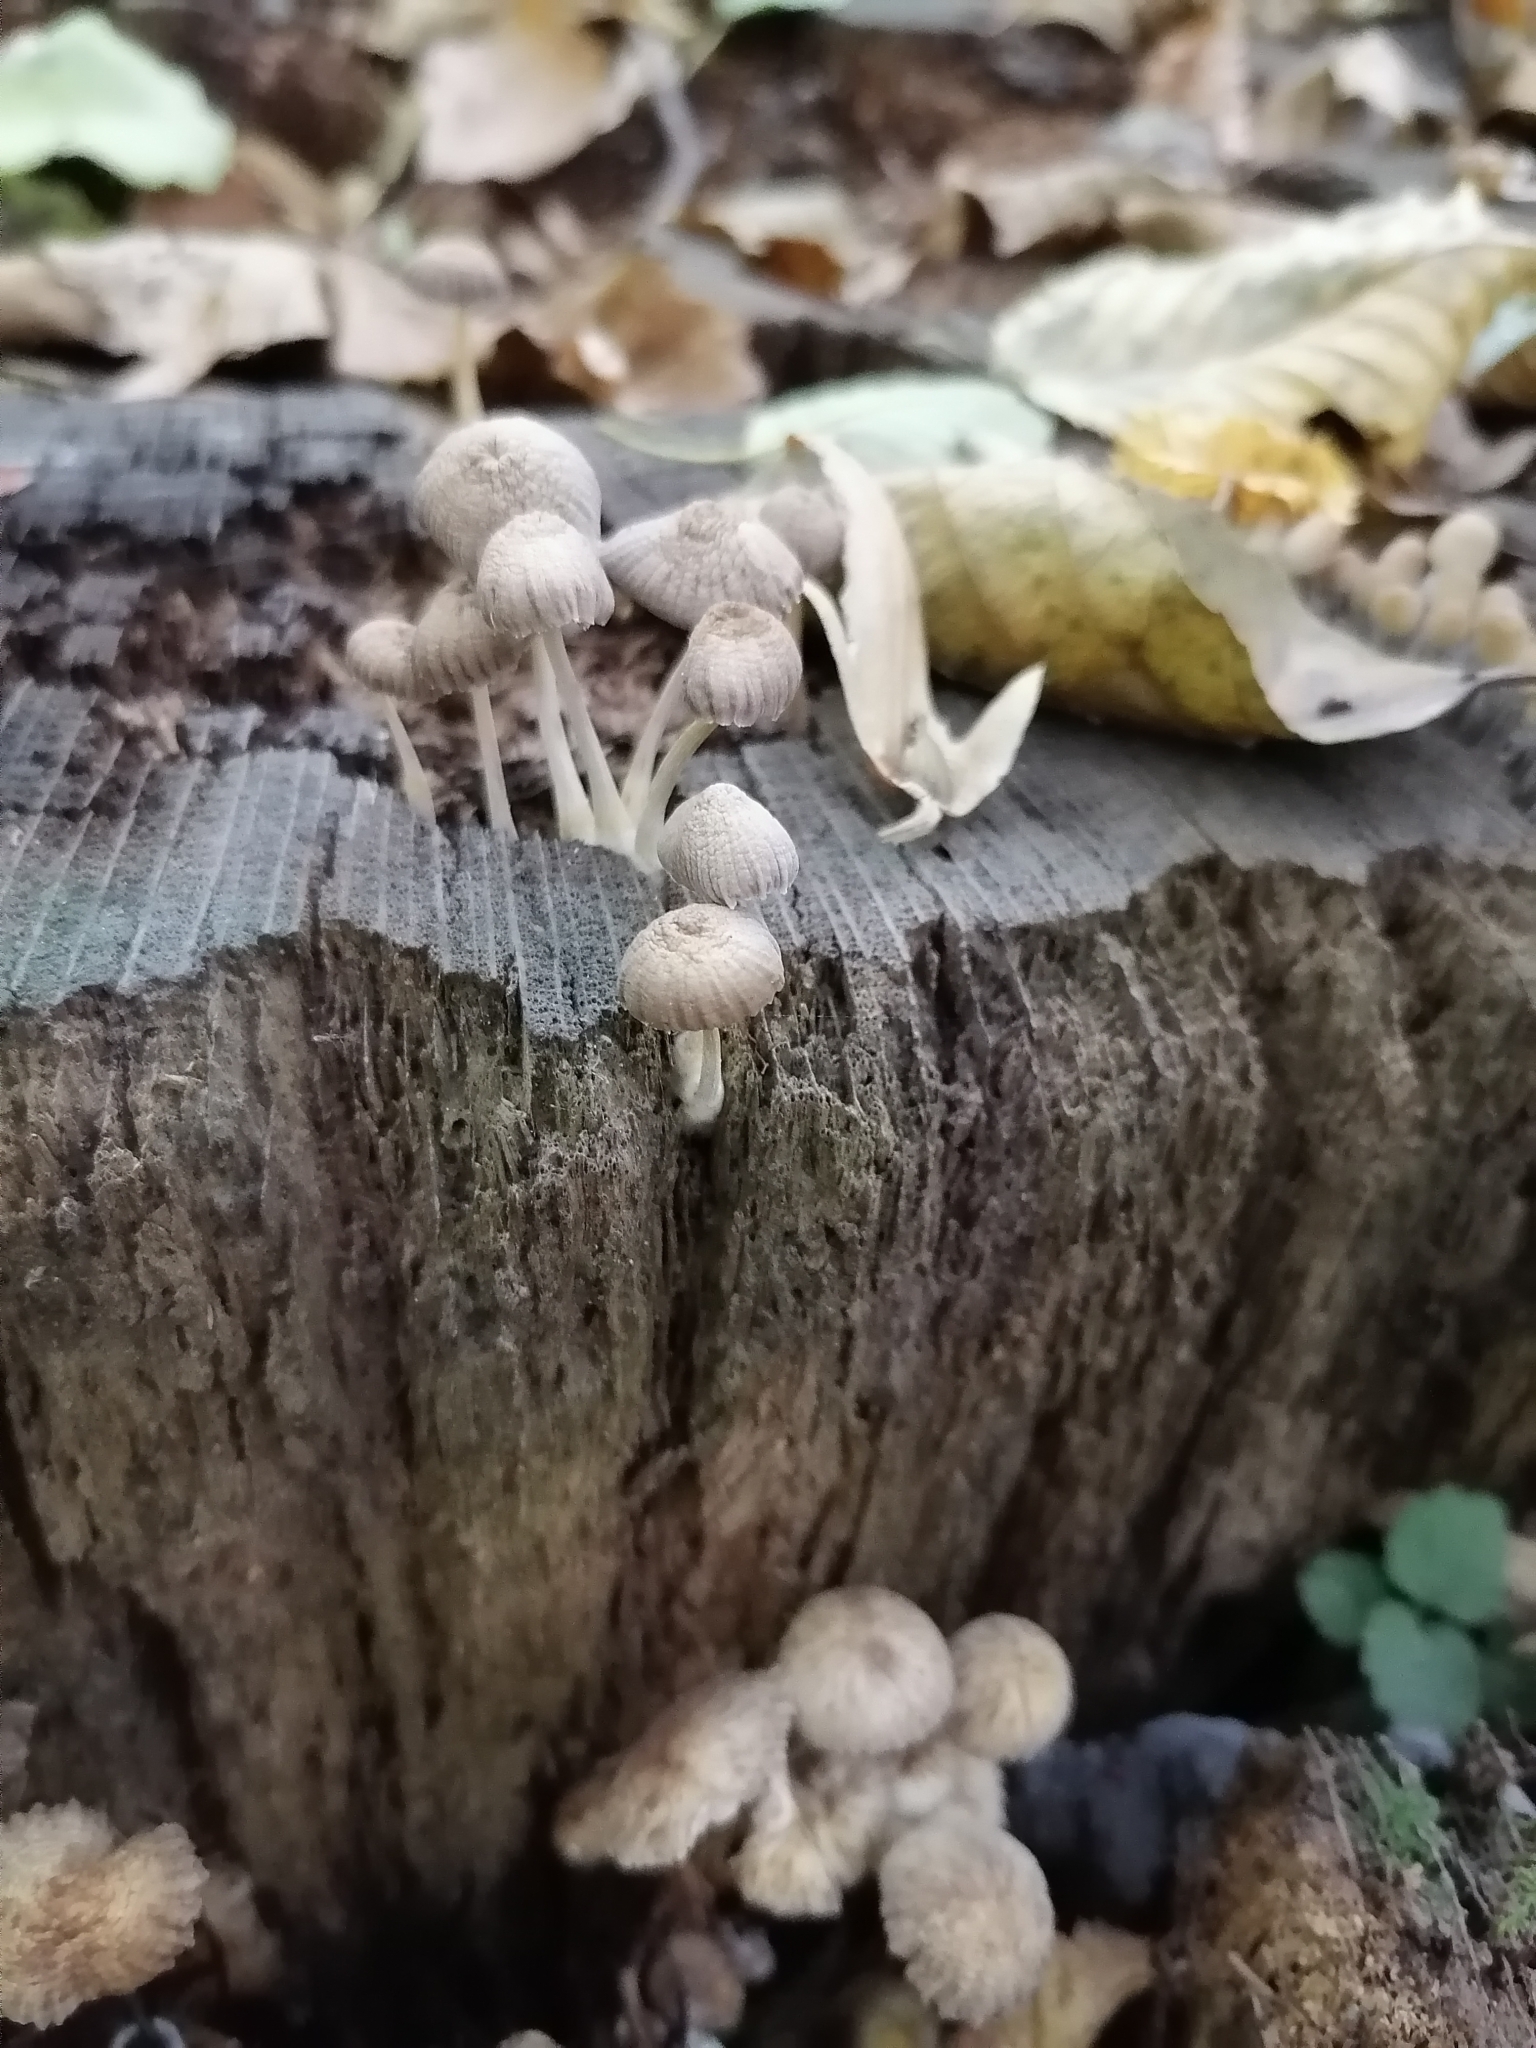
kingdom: Fungi
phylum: Basidiomycota
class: Agaricomycetes
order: Agaricales
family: Mycenaceae
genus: Mycena
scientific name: Mycena inclinata
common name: Clustered bonnet
